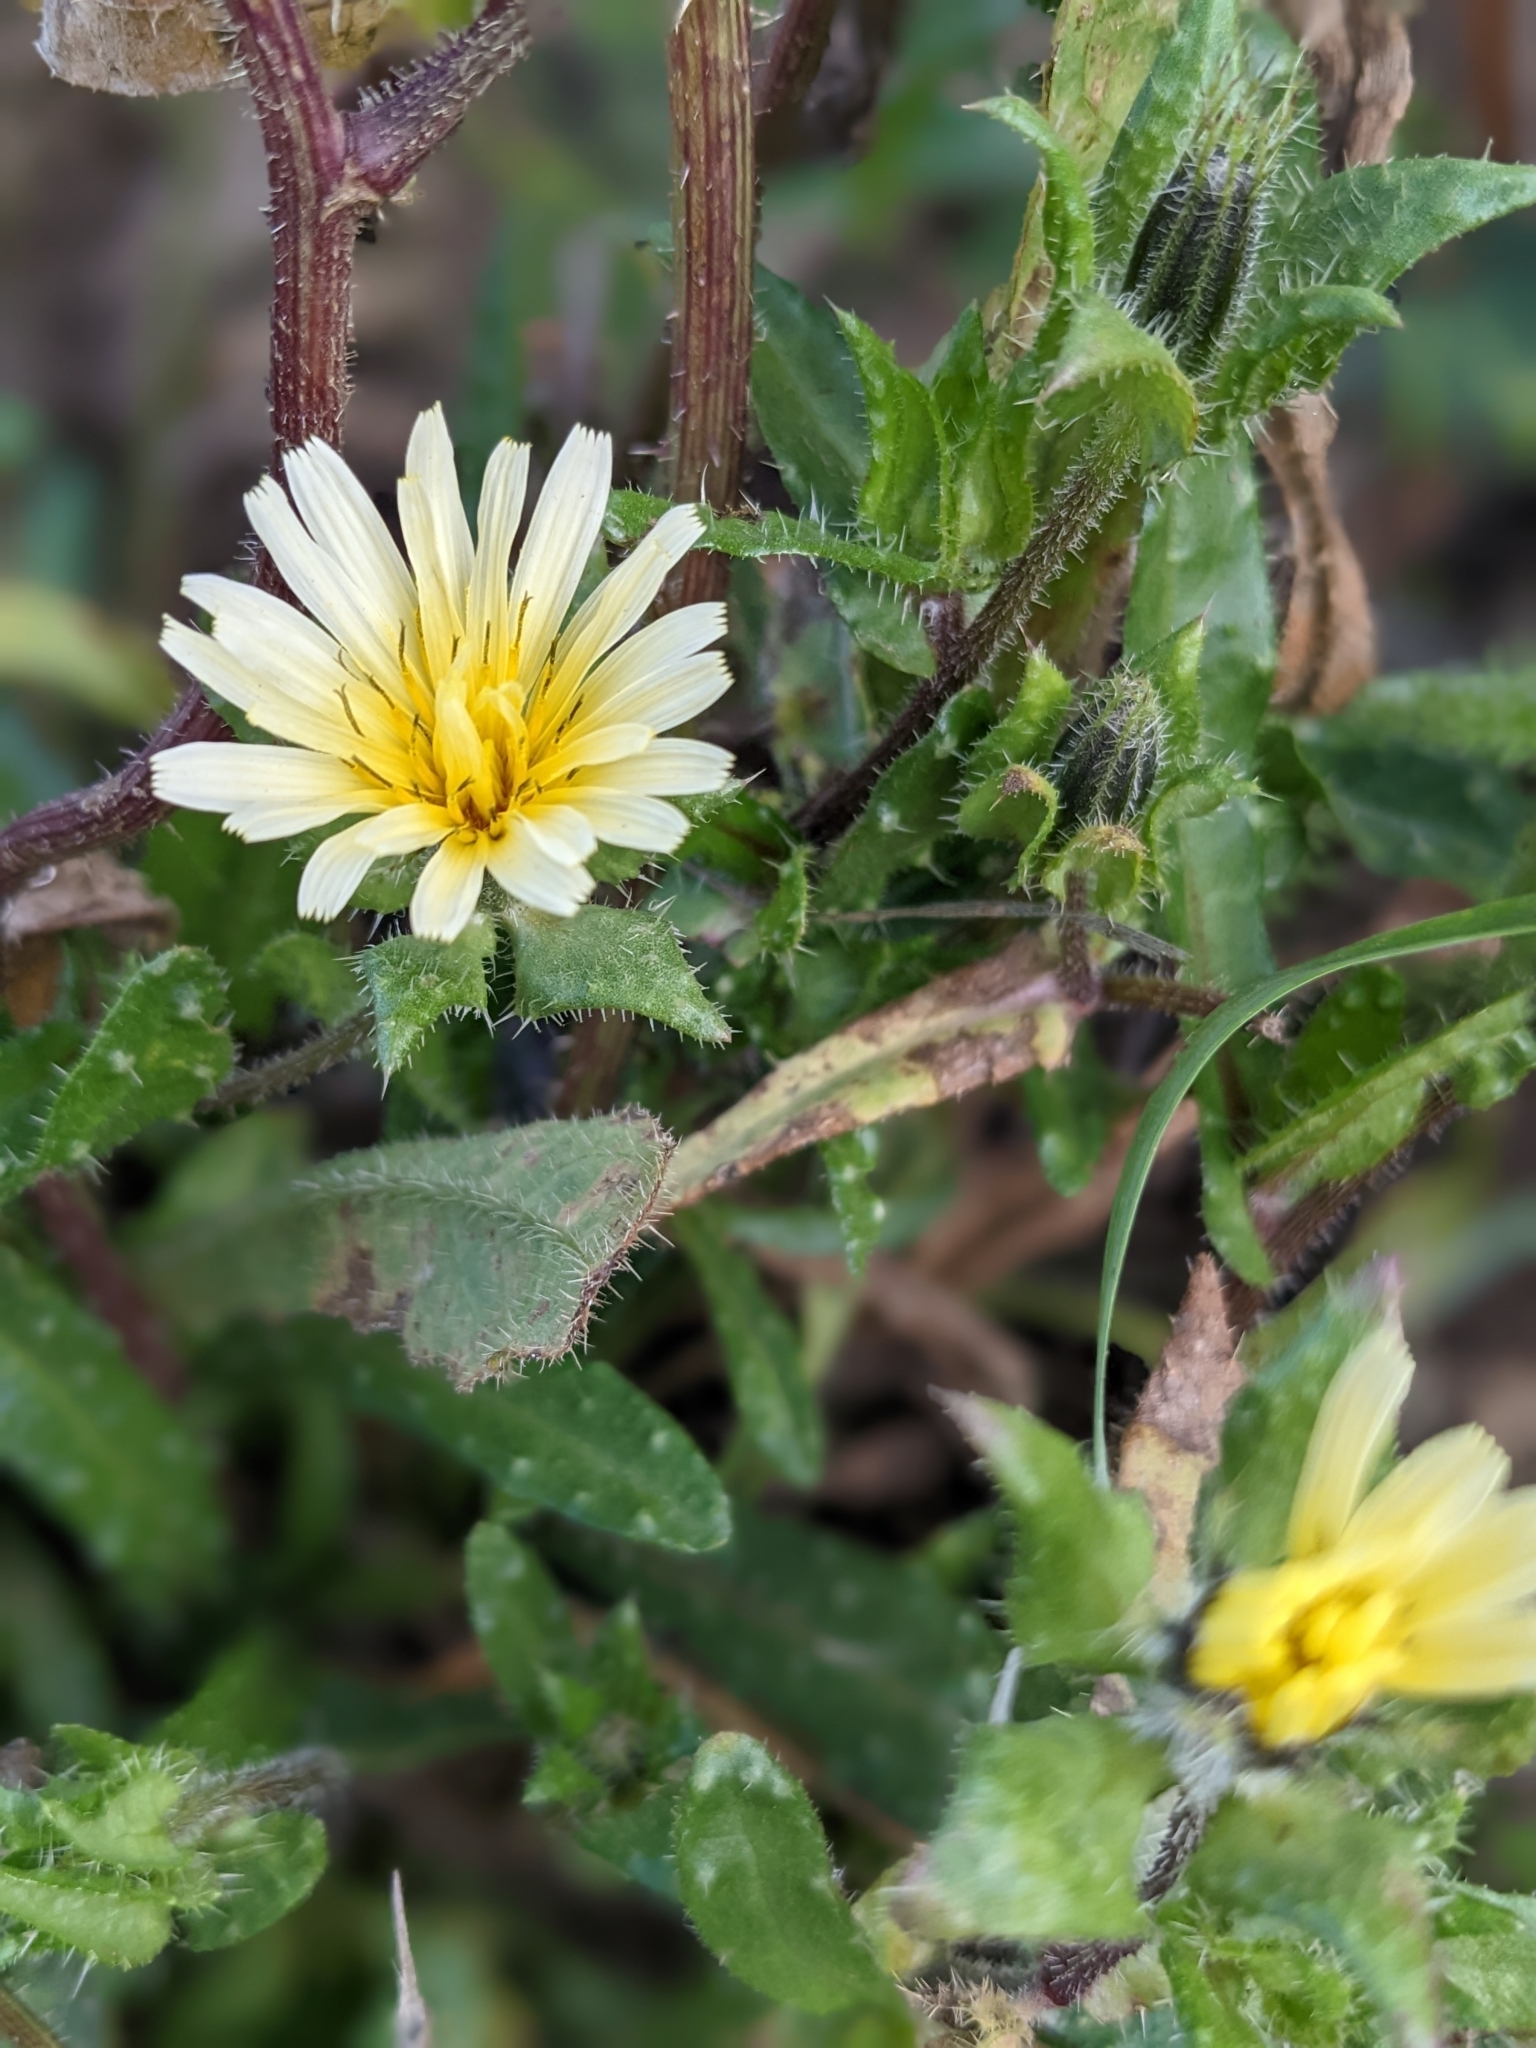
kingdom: Plantae
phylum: Tracheophyta
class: Magnoliopsida
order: Asterales
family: Asteraceae
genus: Helminthotheca
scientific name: Helminthotheca echioides
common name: Ox-tongue
